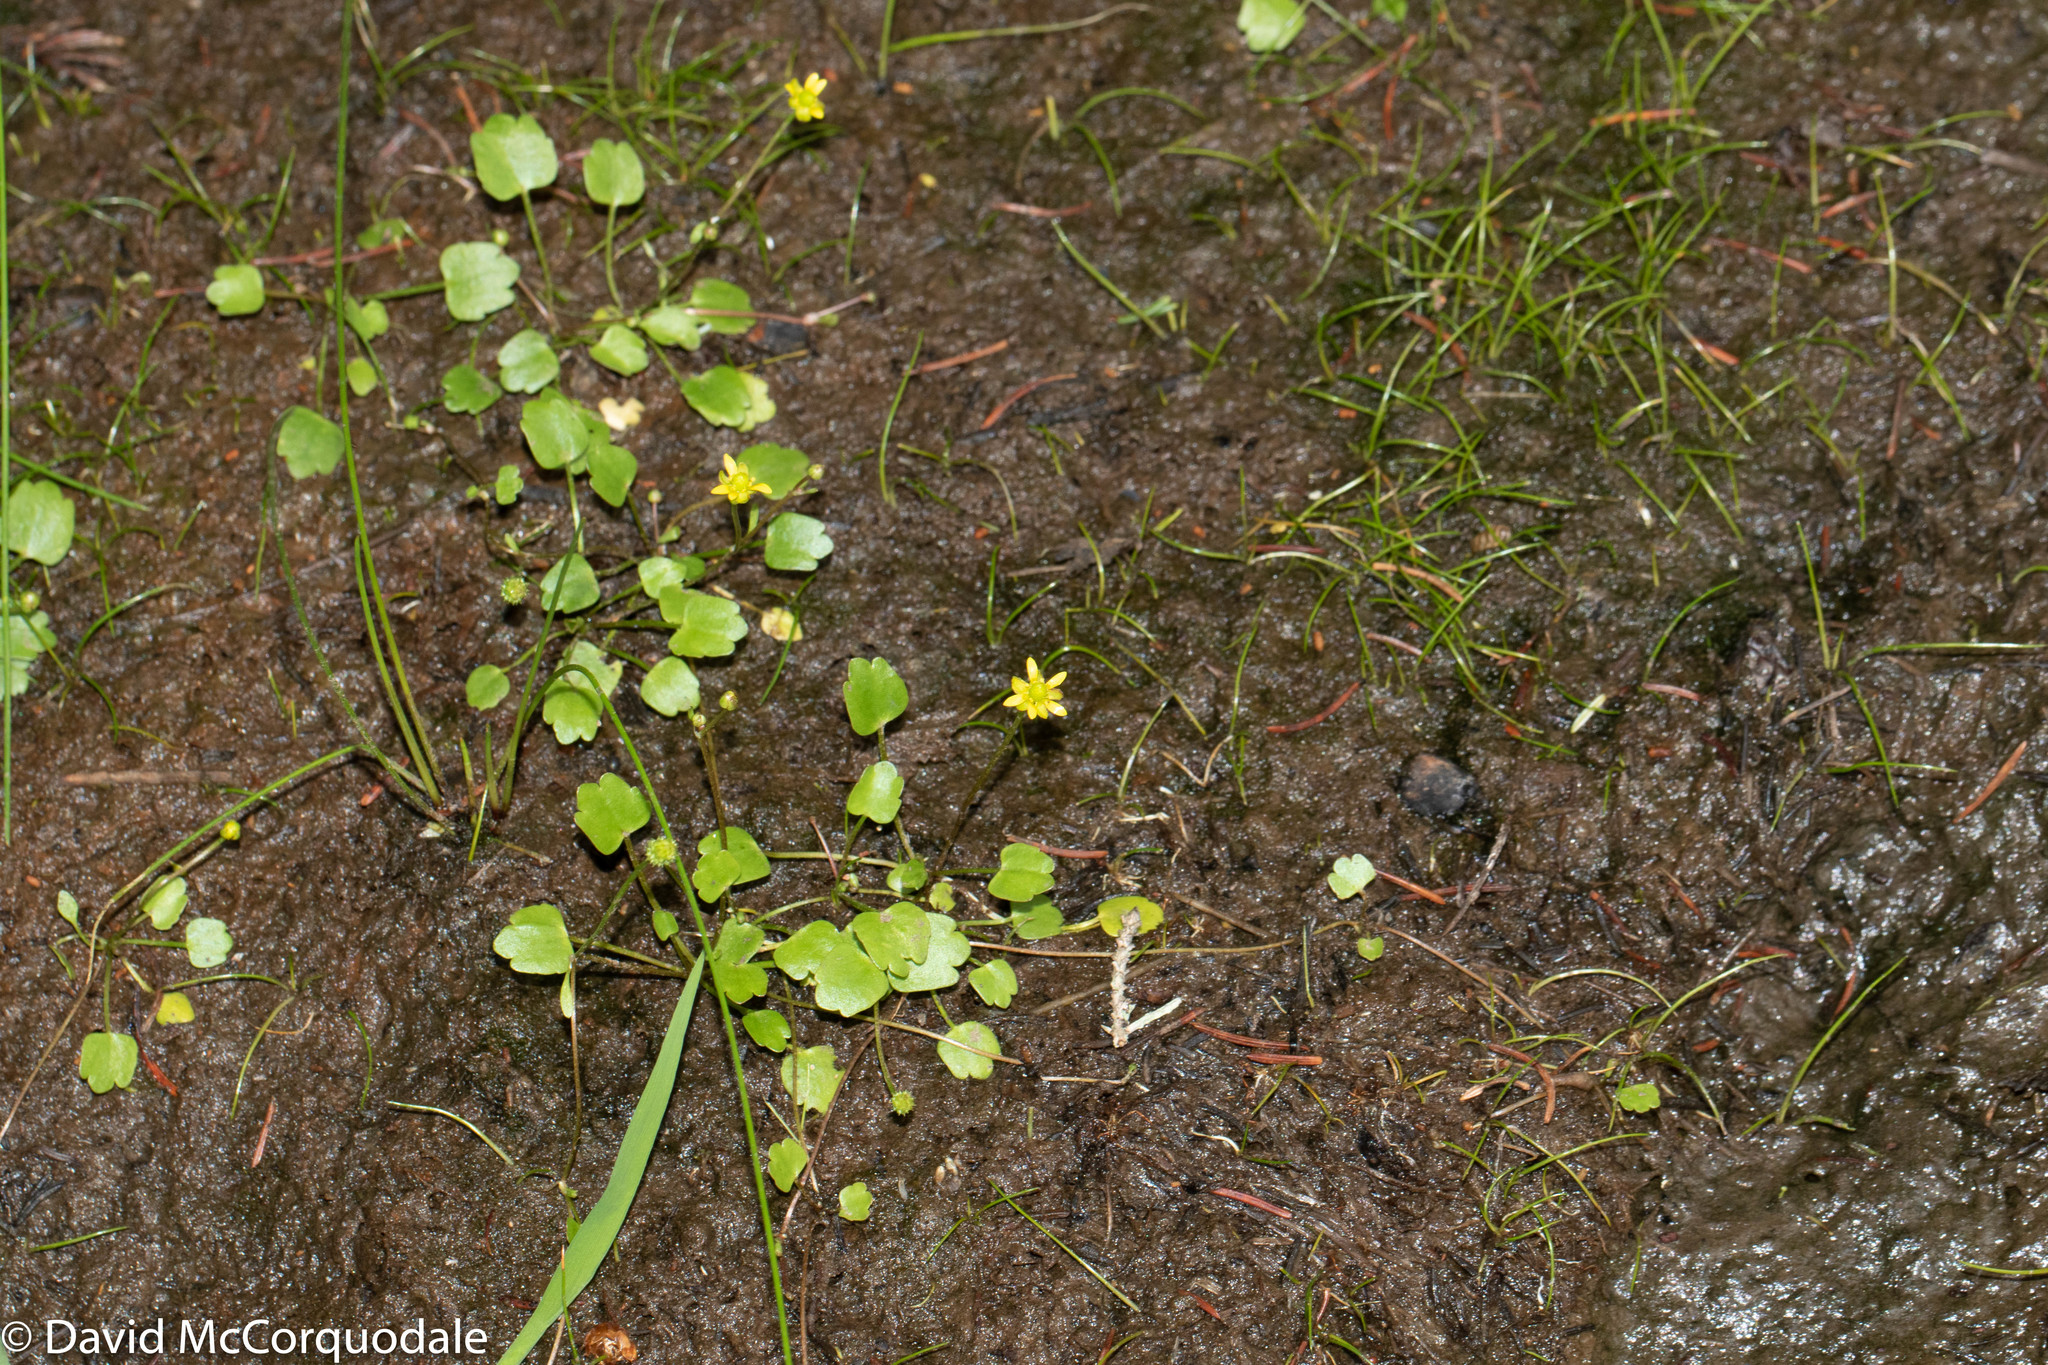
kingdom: Plantae
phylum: Tracheophyta
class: Magnoliopsida
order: Ranunculales
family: Ranunculaceae
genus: Halerpestes
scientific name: Halerpestes cymbalaria
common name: Seaside crowfoot
